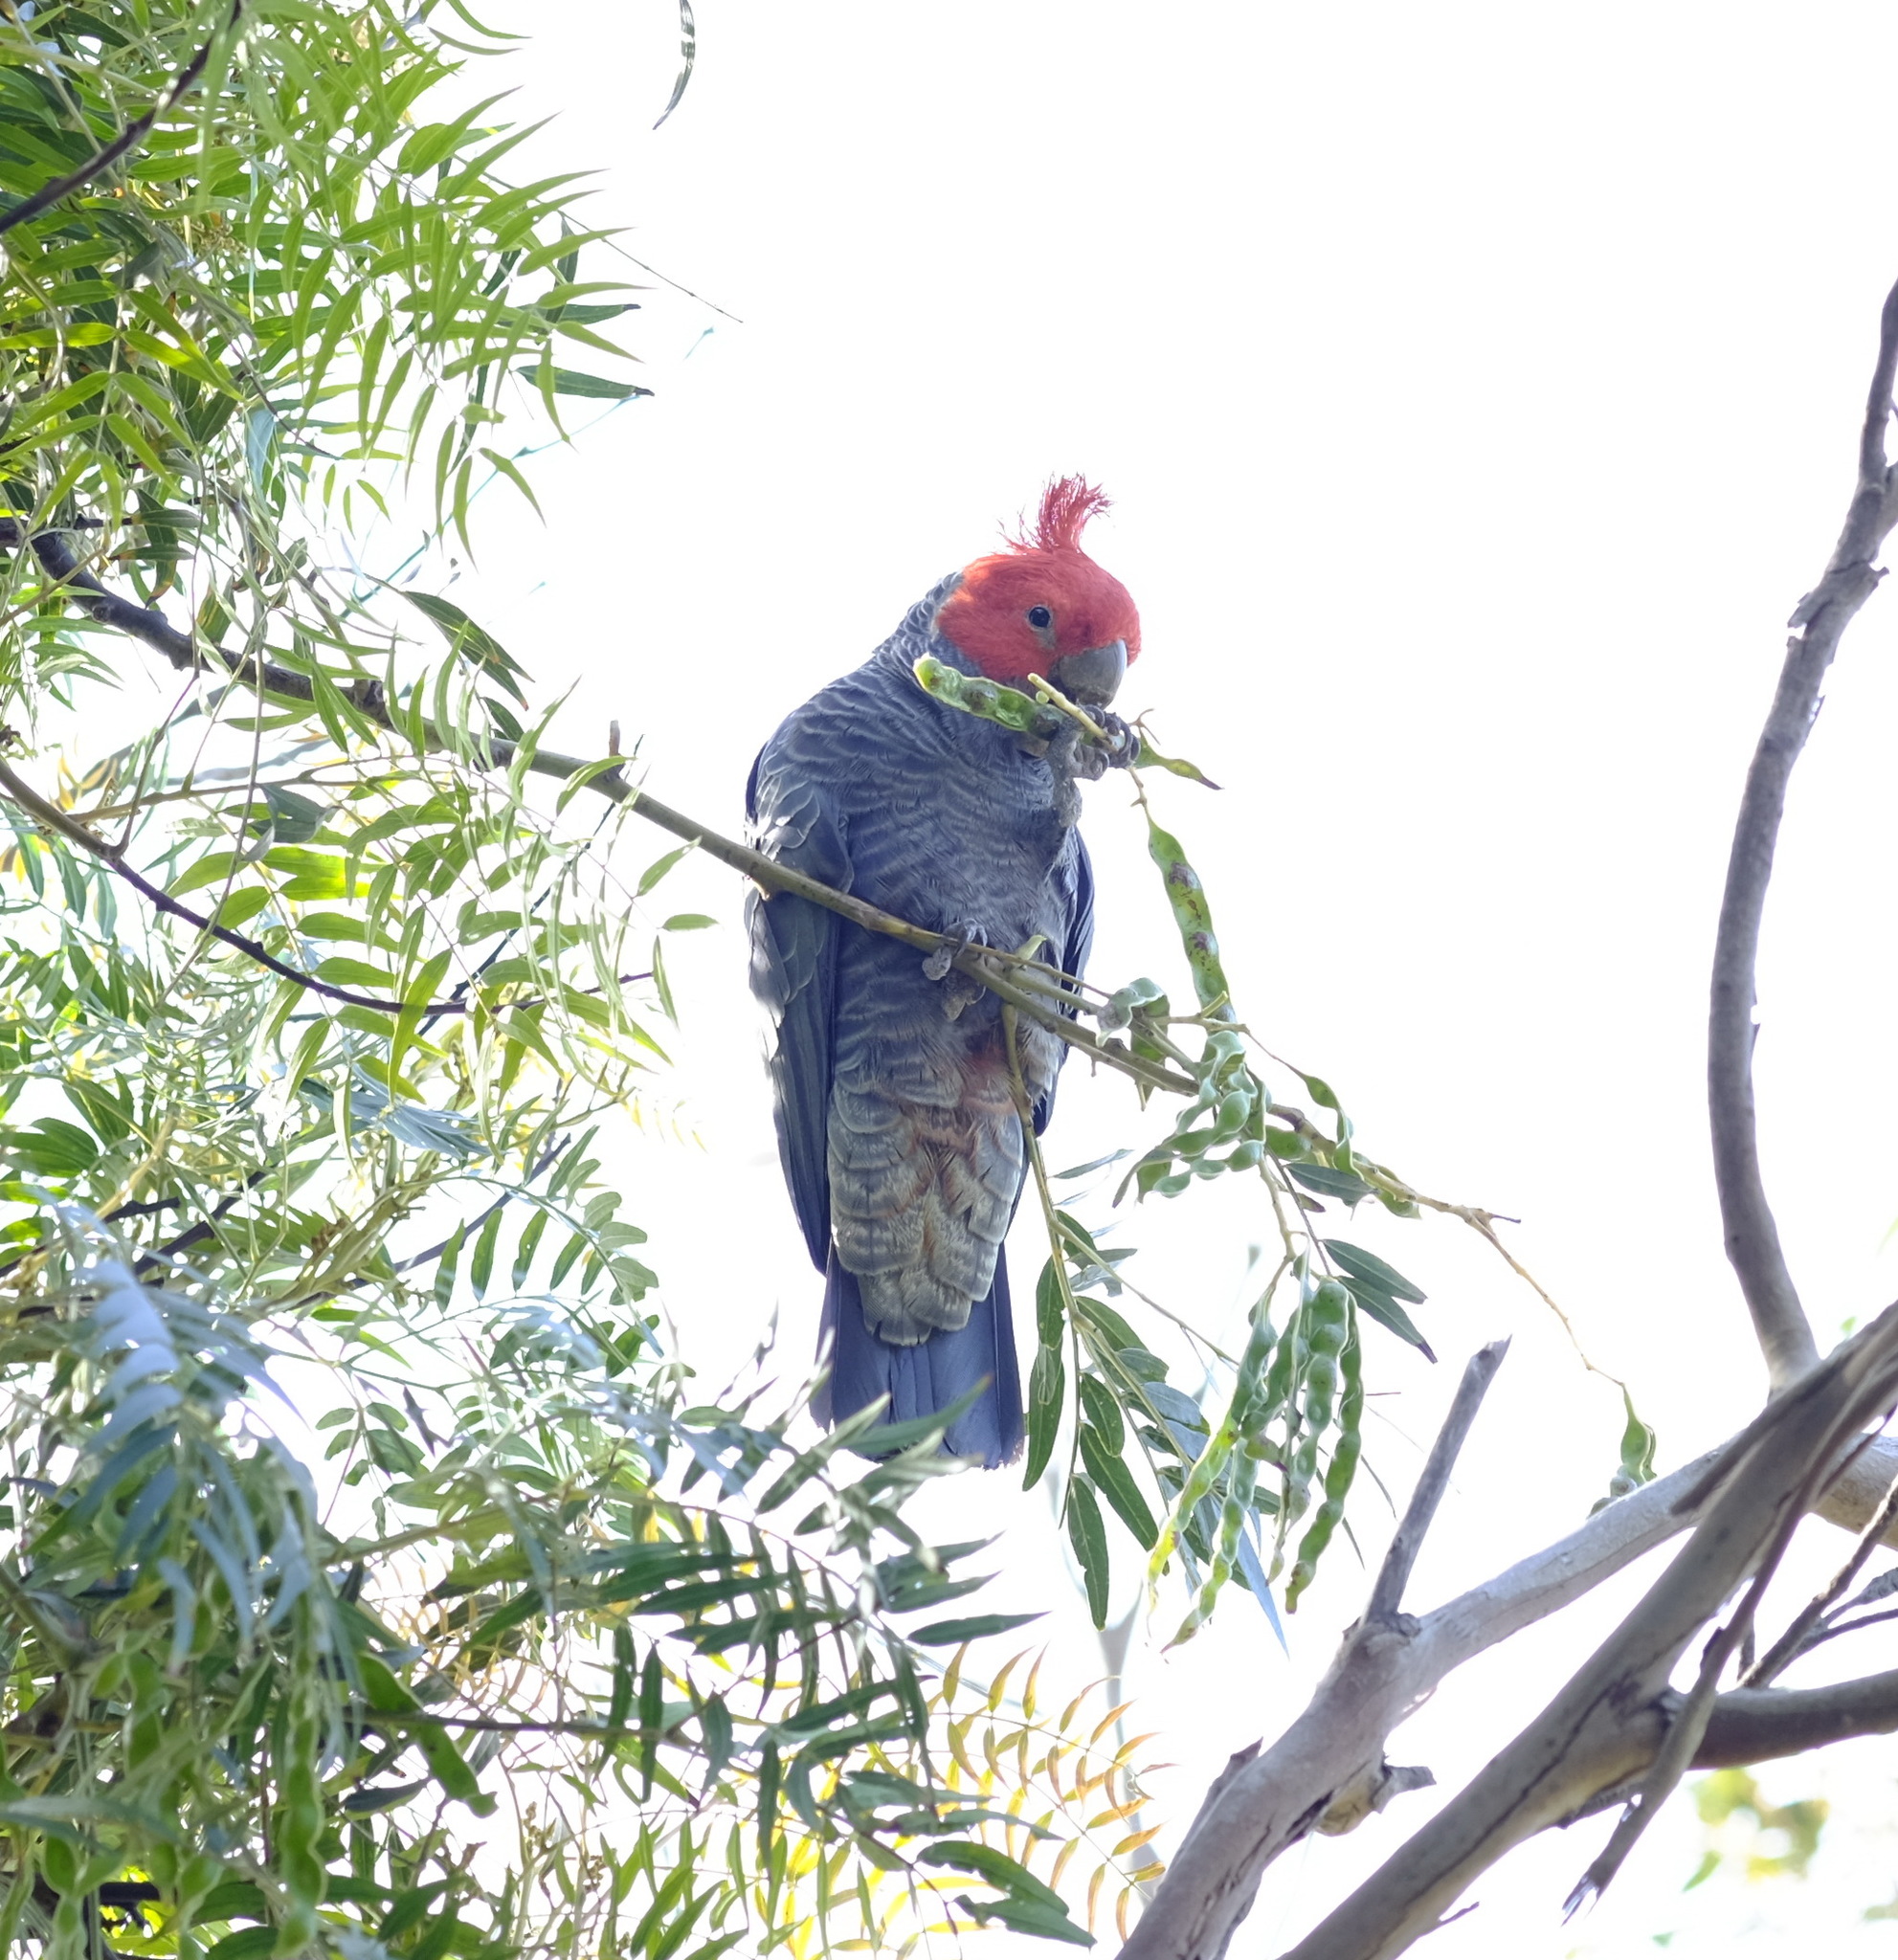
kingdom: Animalia
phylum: Chordata
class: Aves
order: Psittaciformes
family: Psittacidae
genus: Callocephalon
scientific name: Callocephalon fimbriatum
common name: Gang-gang cockatoo
